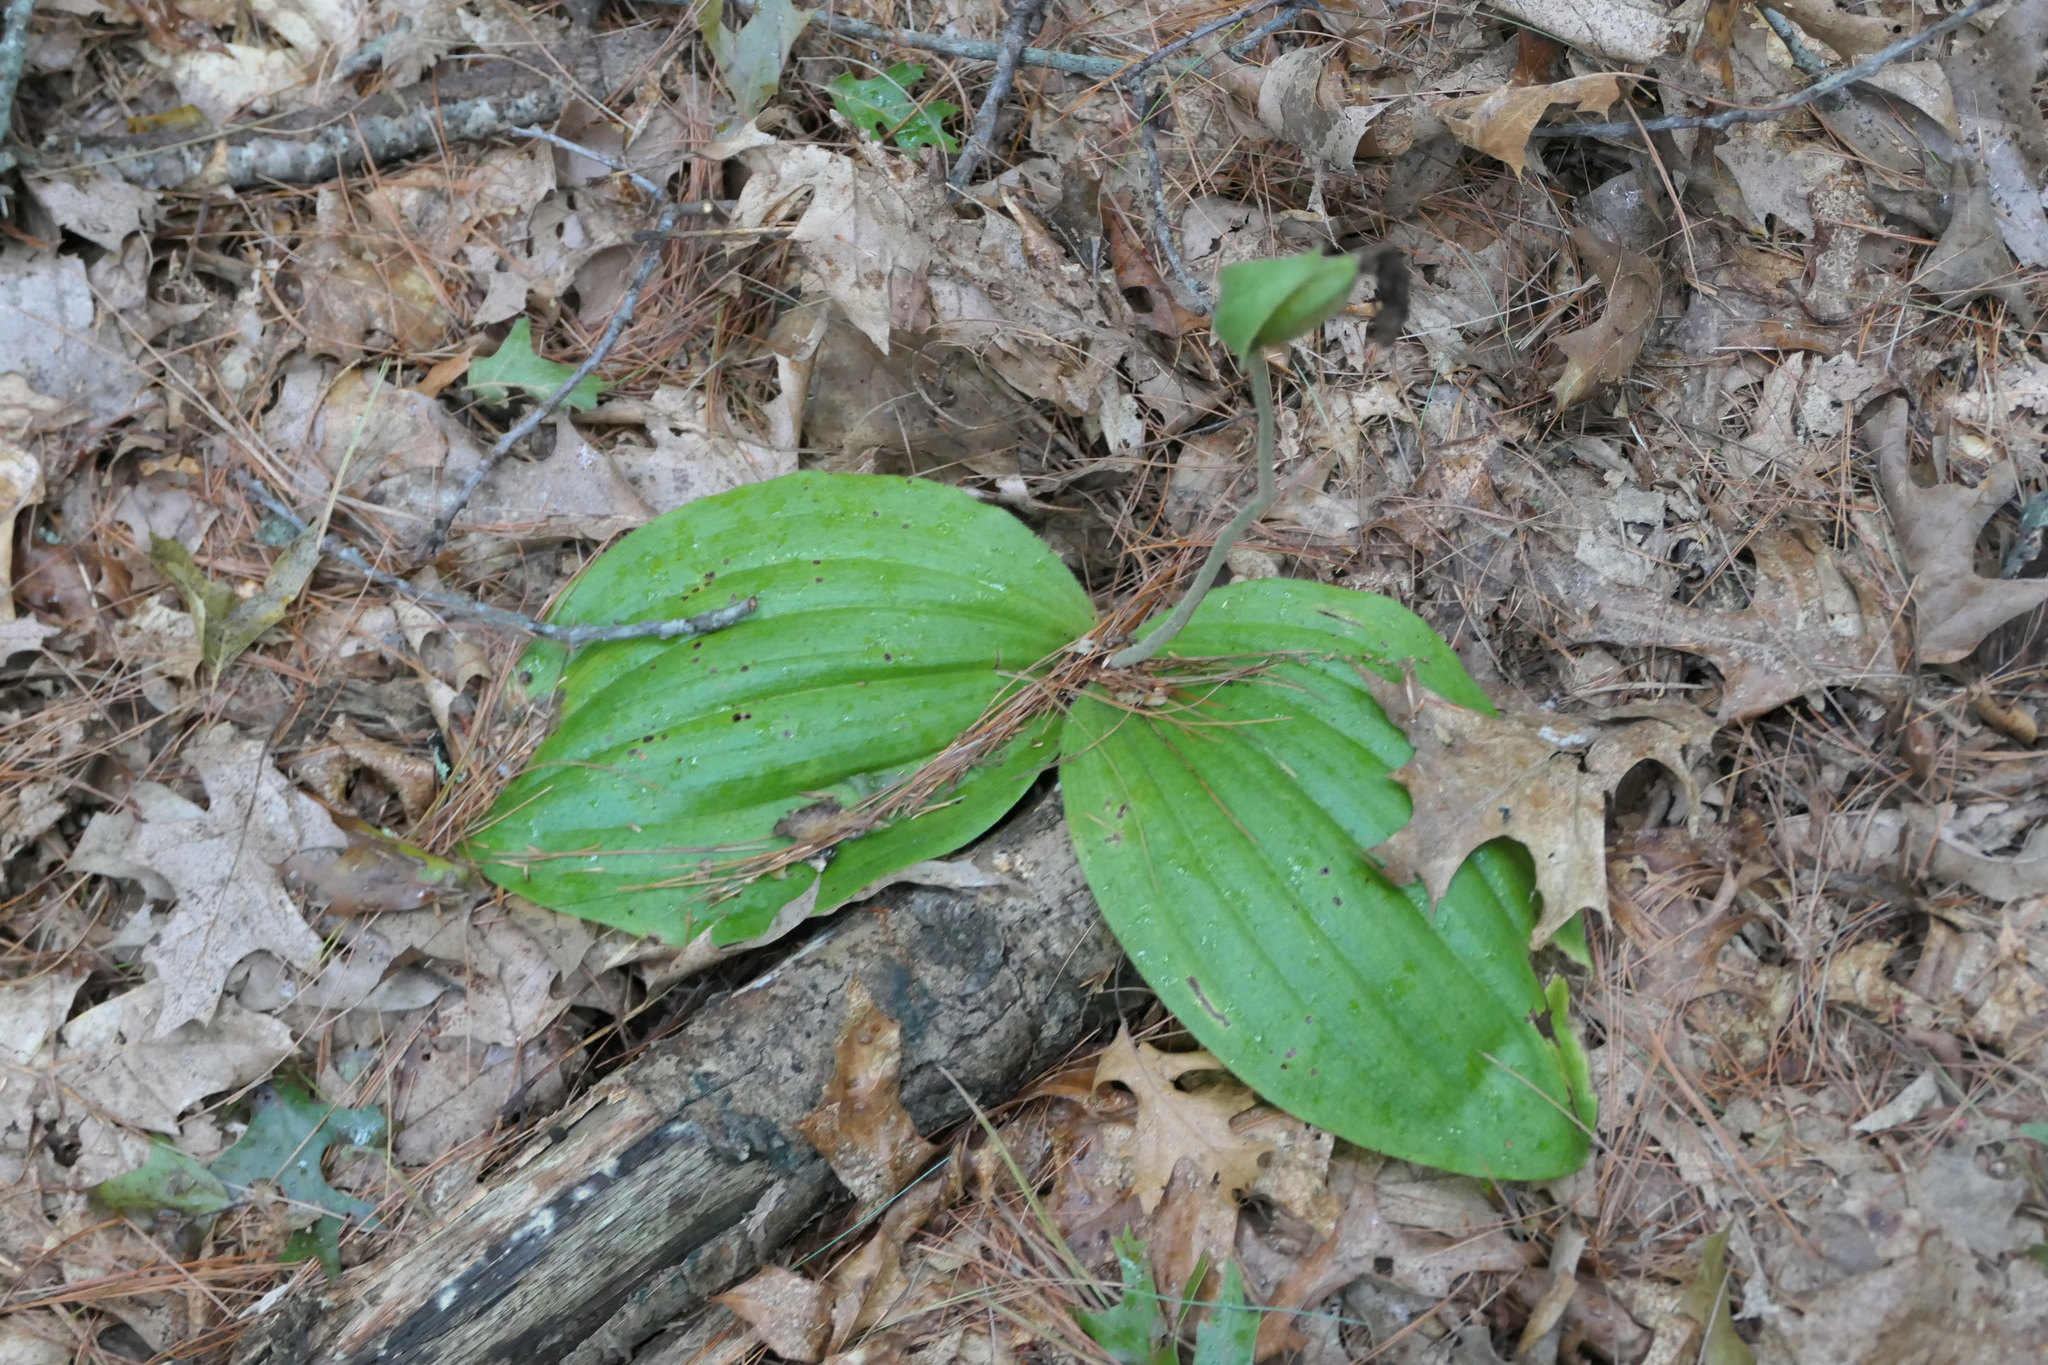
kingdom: Plantae
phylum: Tracheophyta
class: Liliopsida
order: Asparagales
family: Orchidaceae
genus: Cypripedium
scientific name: Cypripedium acaule
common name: Pink lady's-slipper
